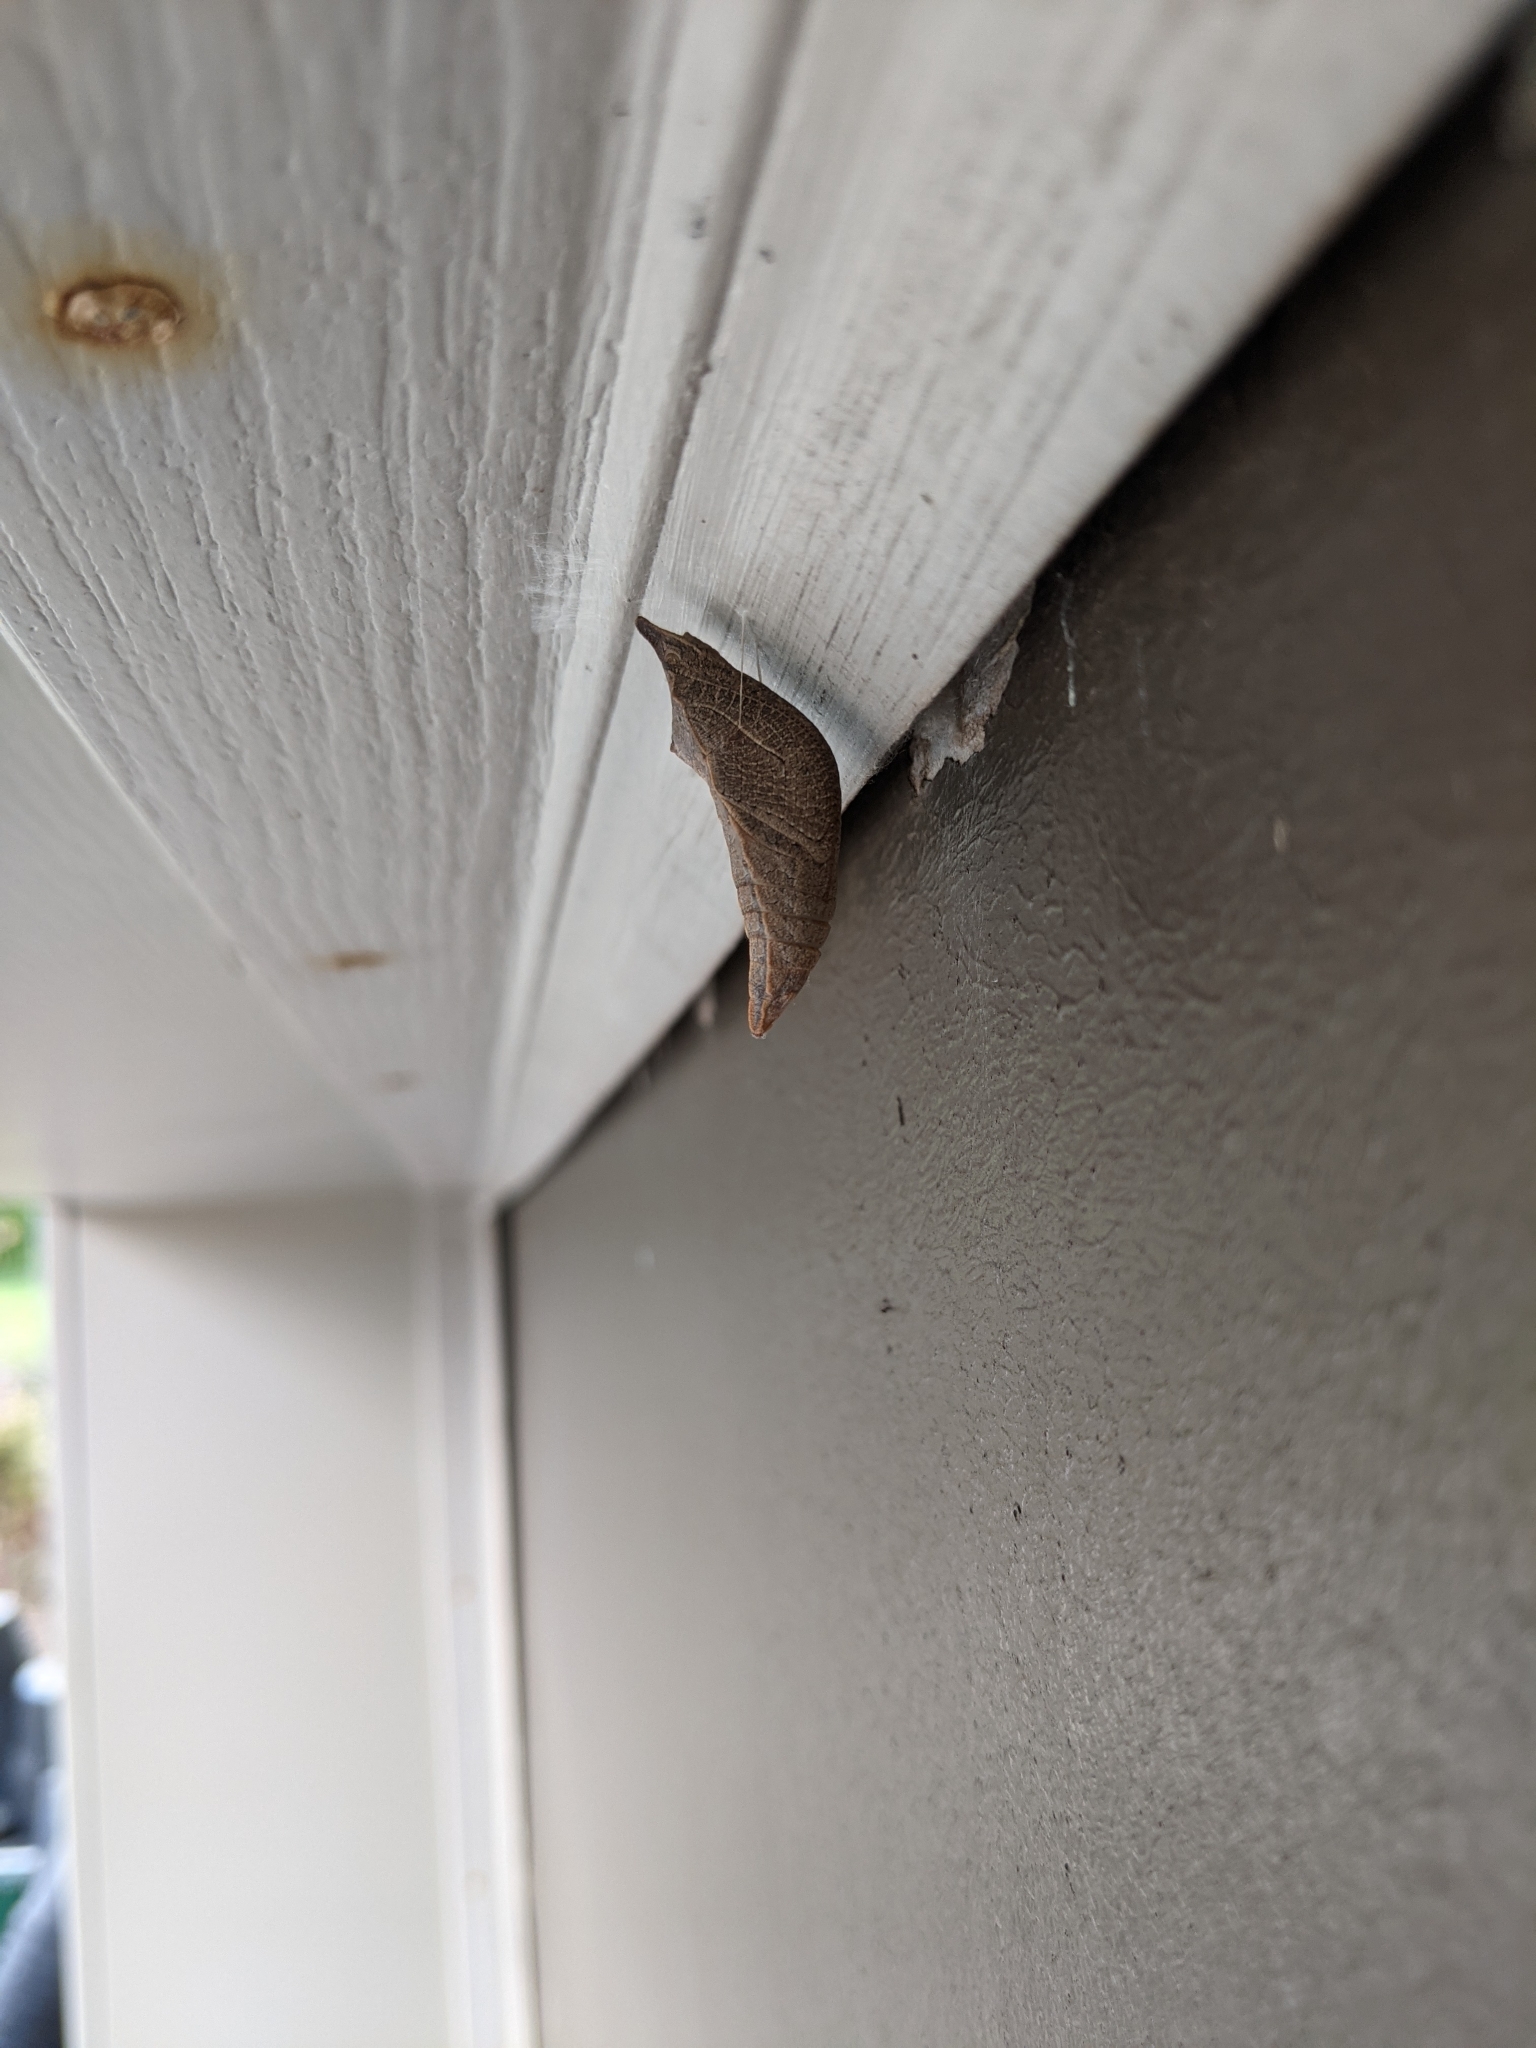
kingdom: Animalia
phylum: Arthropoda
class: Insecta
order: Lepidoptera
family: Papilionidae
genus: Papilio
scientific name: Papilio troilus
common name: Spicebush swallowtail
